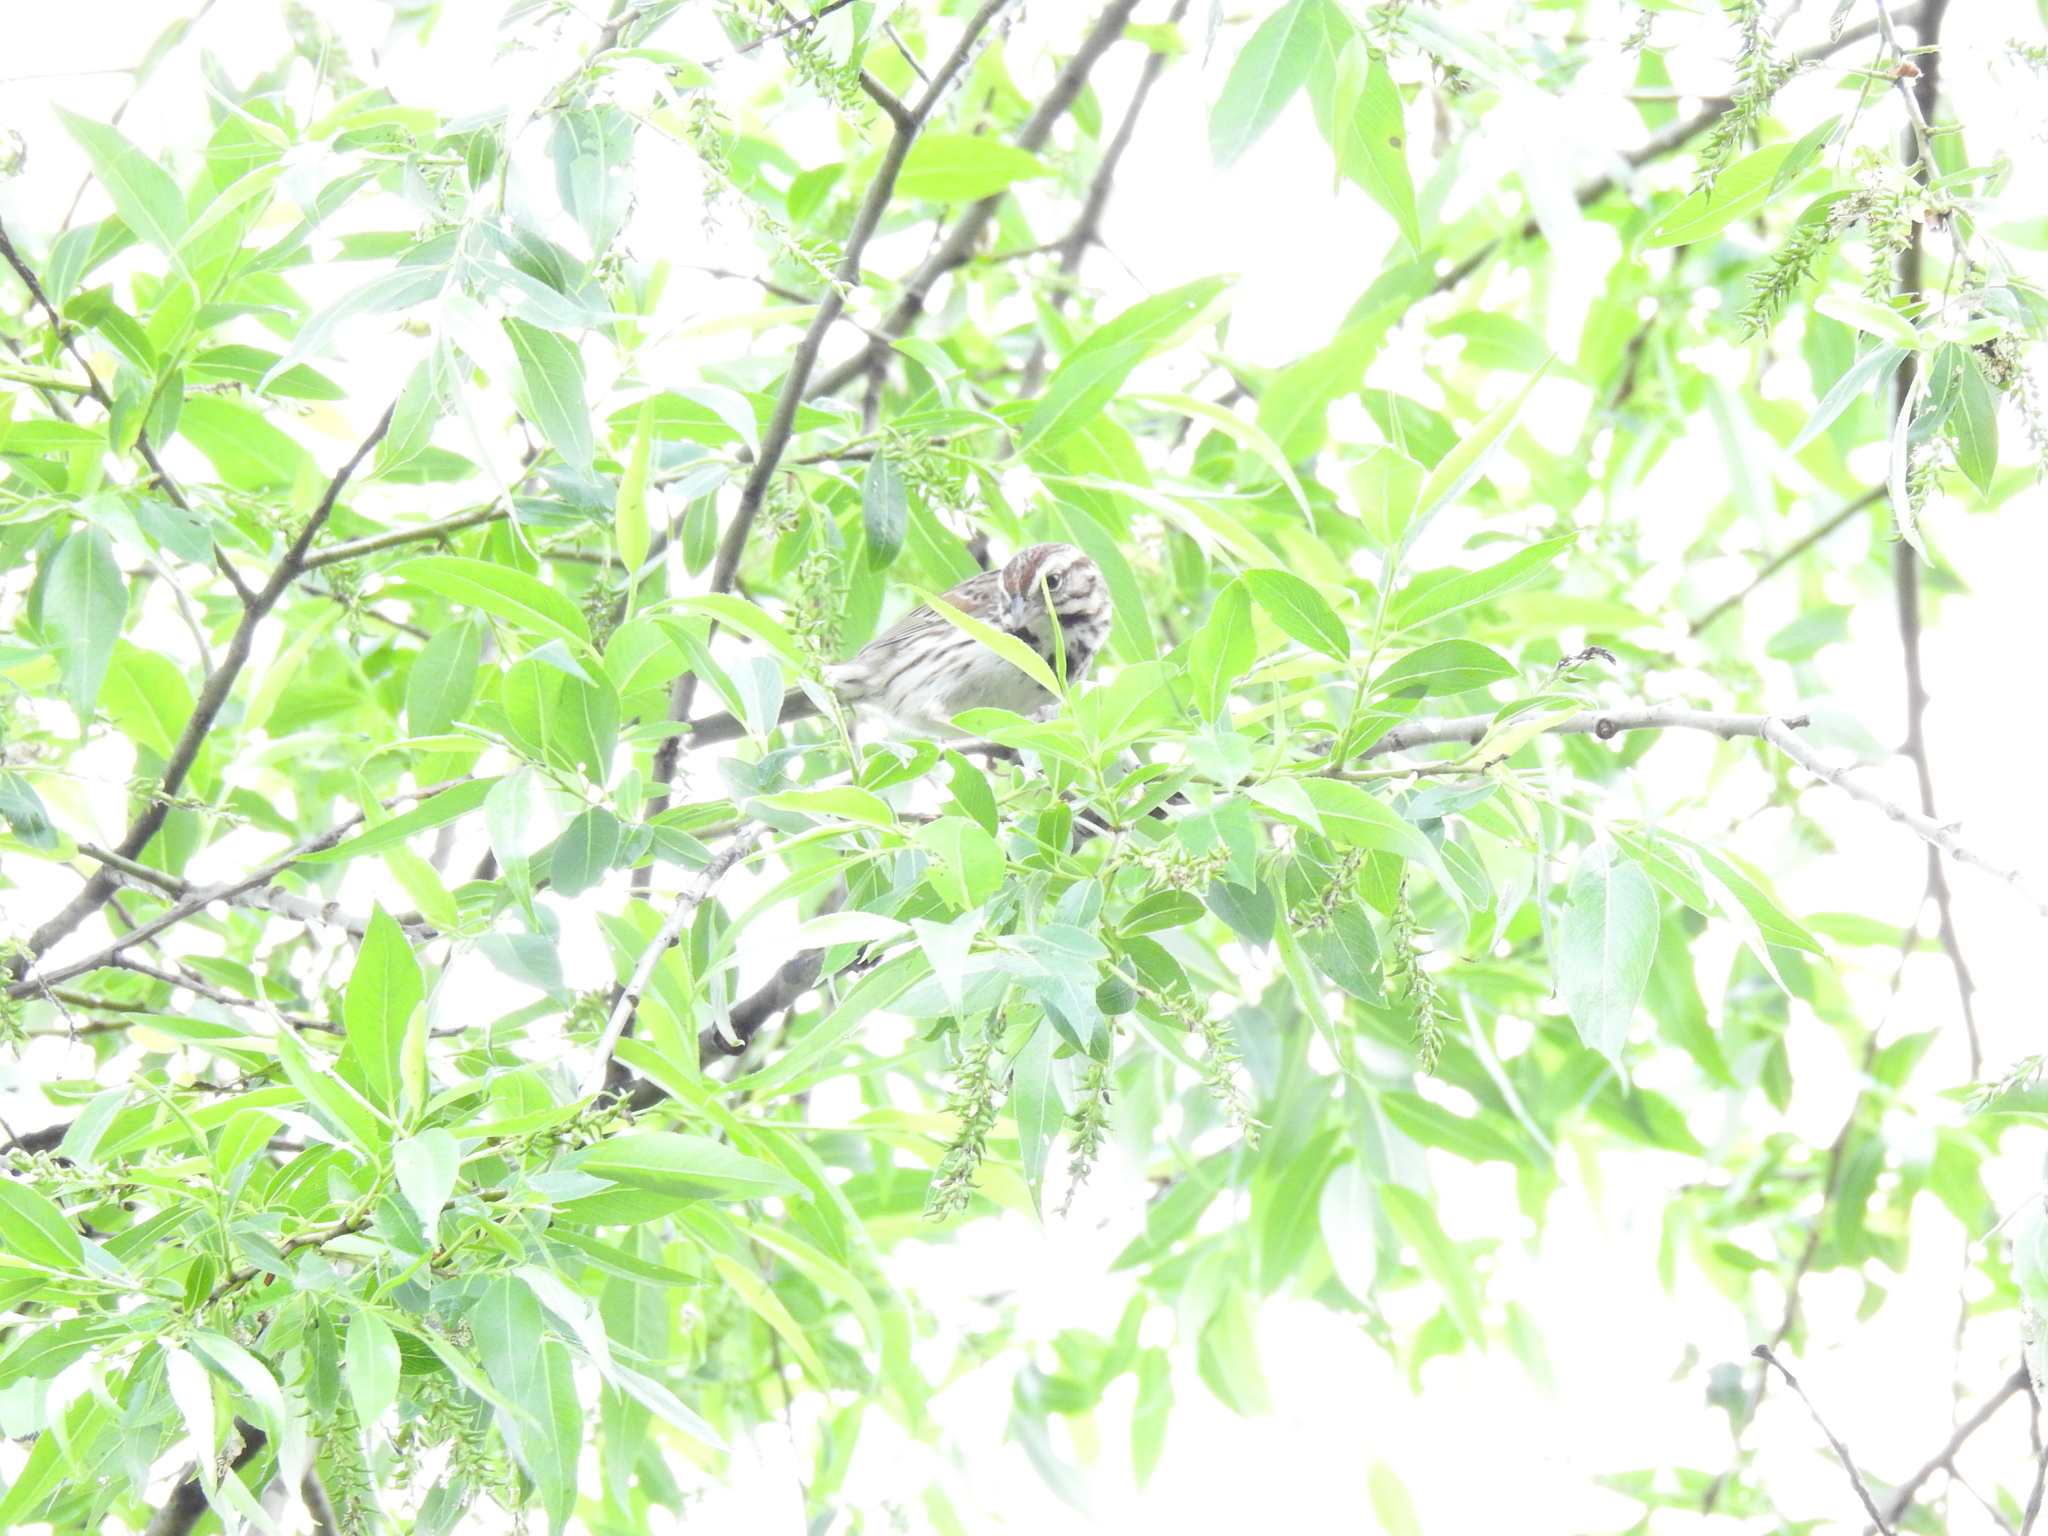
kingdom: Animalia
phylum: Chordata
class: Aves
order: Passeriformes
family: Passerellidae
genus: Melospiza
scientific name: Melospiza melodia
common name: Song sparrow
